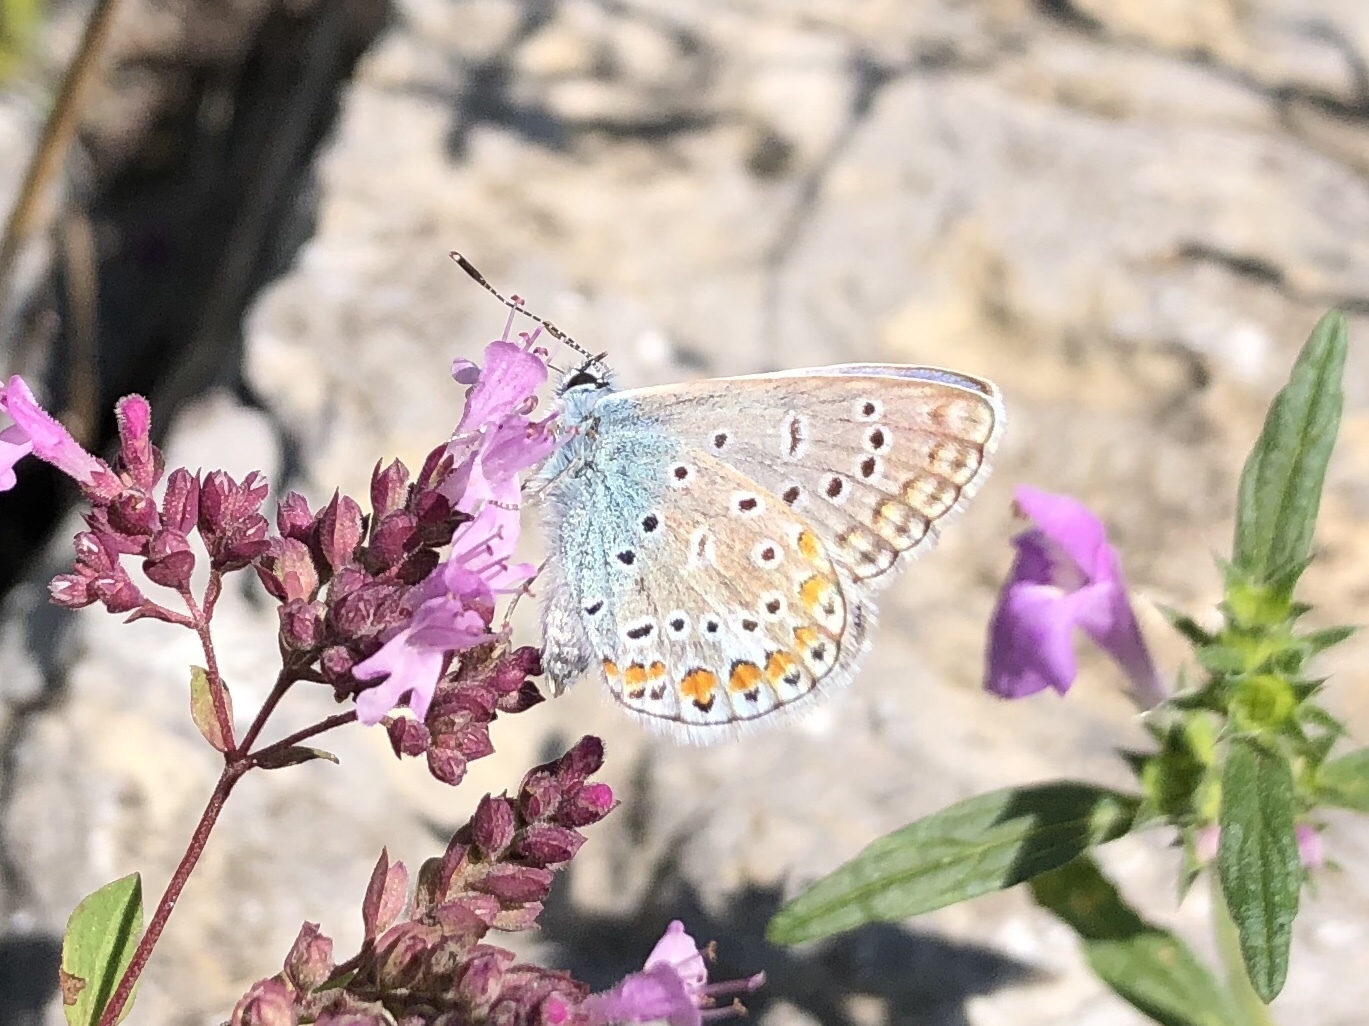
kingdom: Animalia
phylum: Arthropoda
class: Insecta
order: Lepidoptera
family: Lycaenidae
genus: Polyommatus
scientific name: Polyommatus icarus
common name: Common blue
